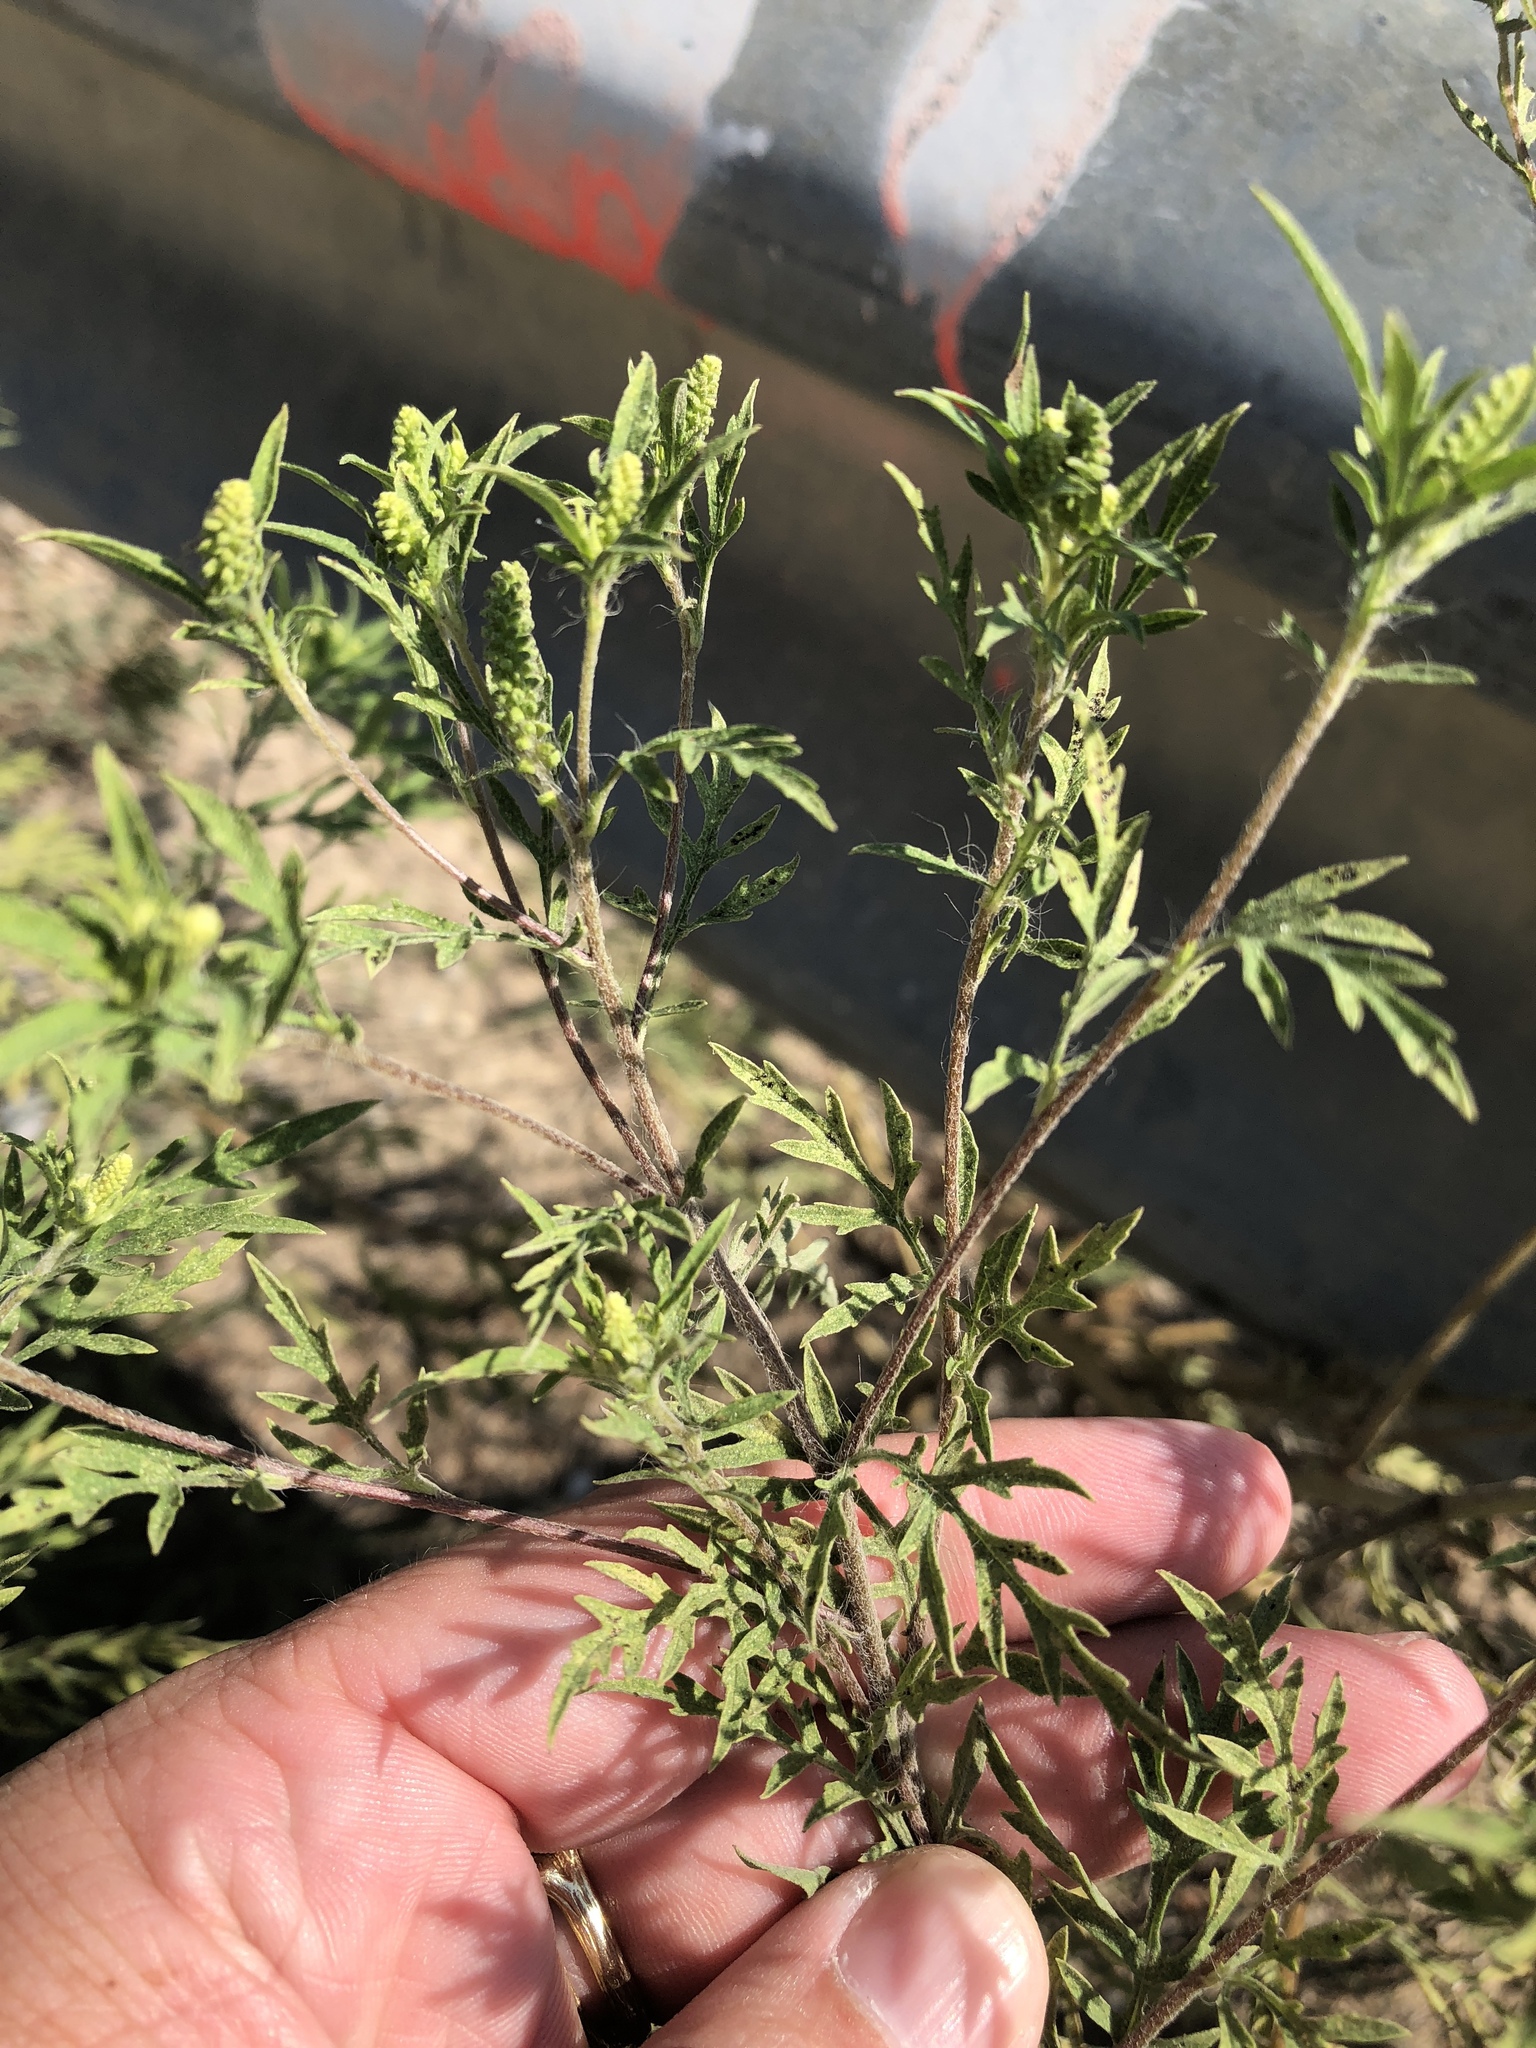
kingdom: Plantae
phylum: Tracheophyta
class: Magnoliopsida
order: Asterales
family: Asteraceae
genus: Ambrosia
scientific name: Ambrosia artemisiifolia
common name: Annual ragweed
